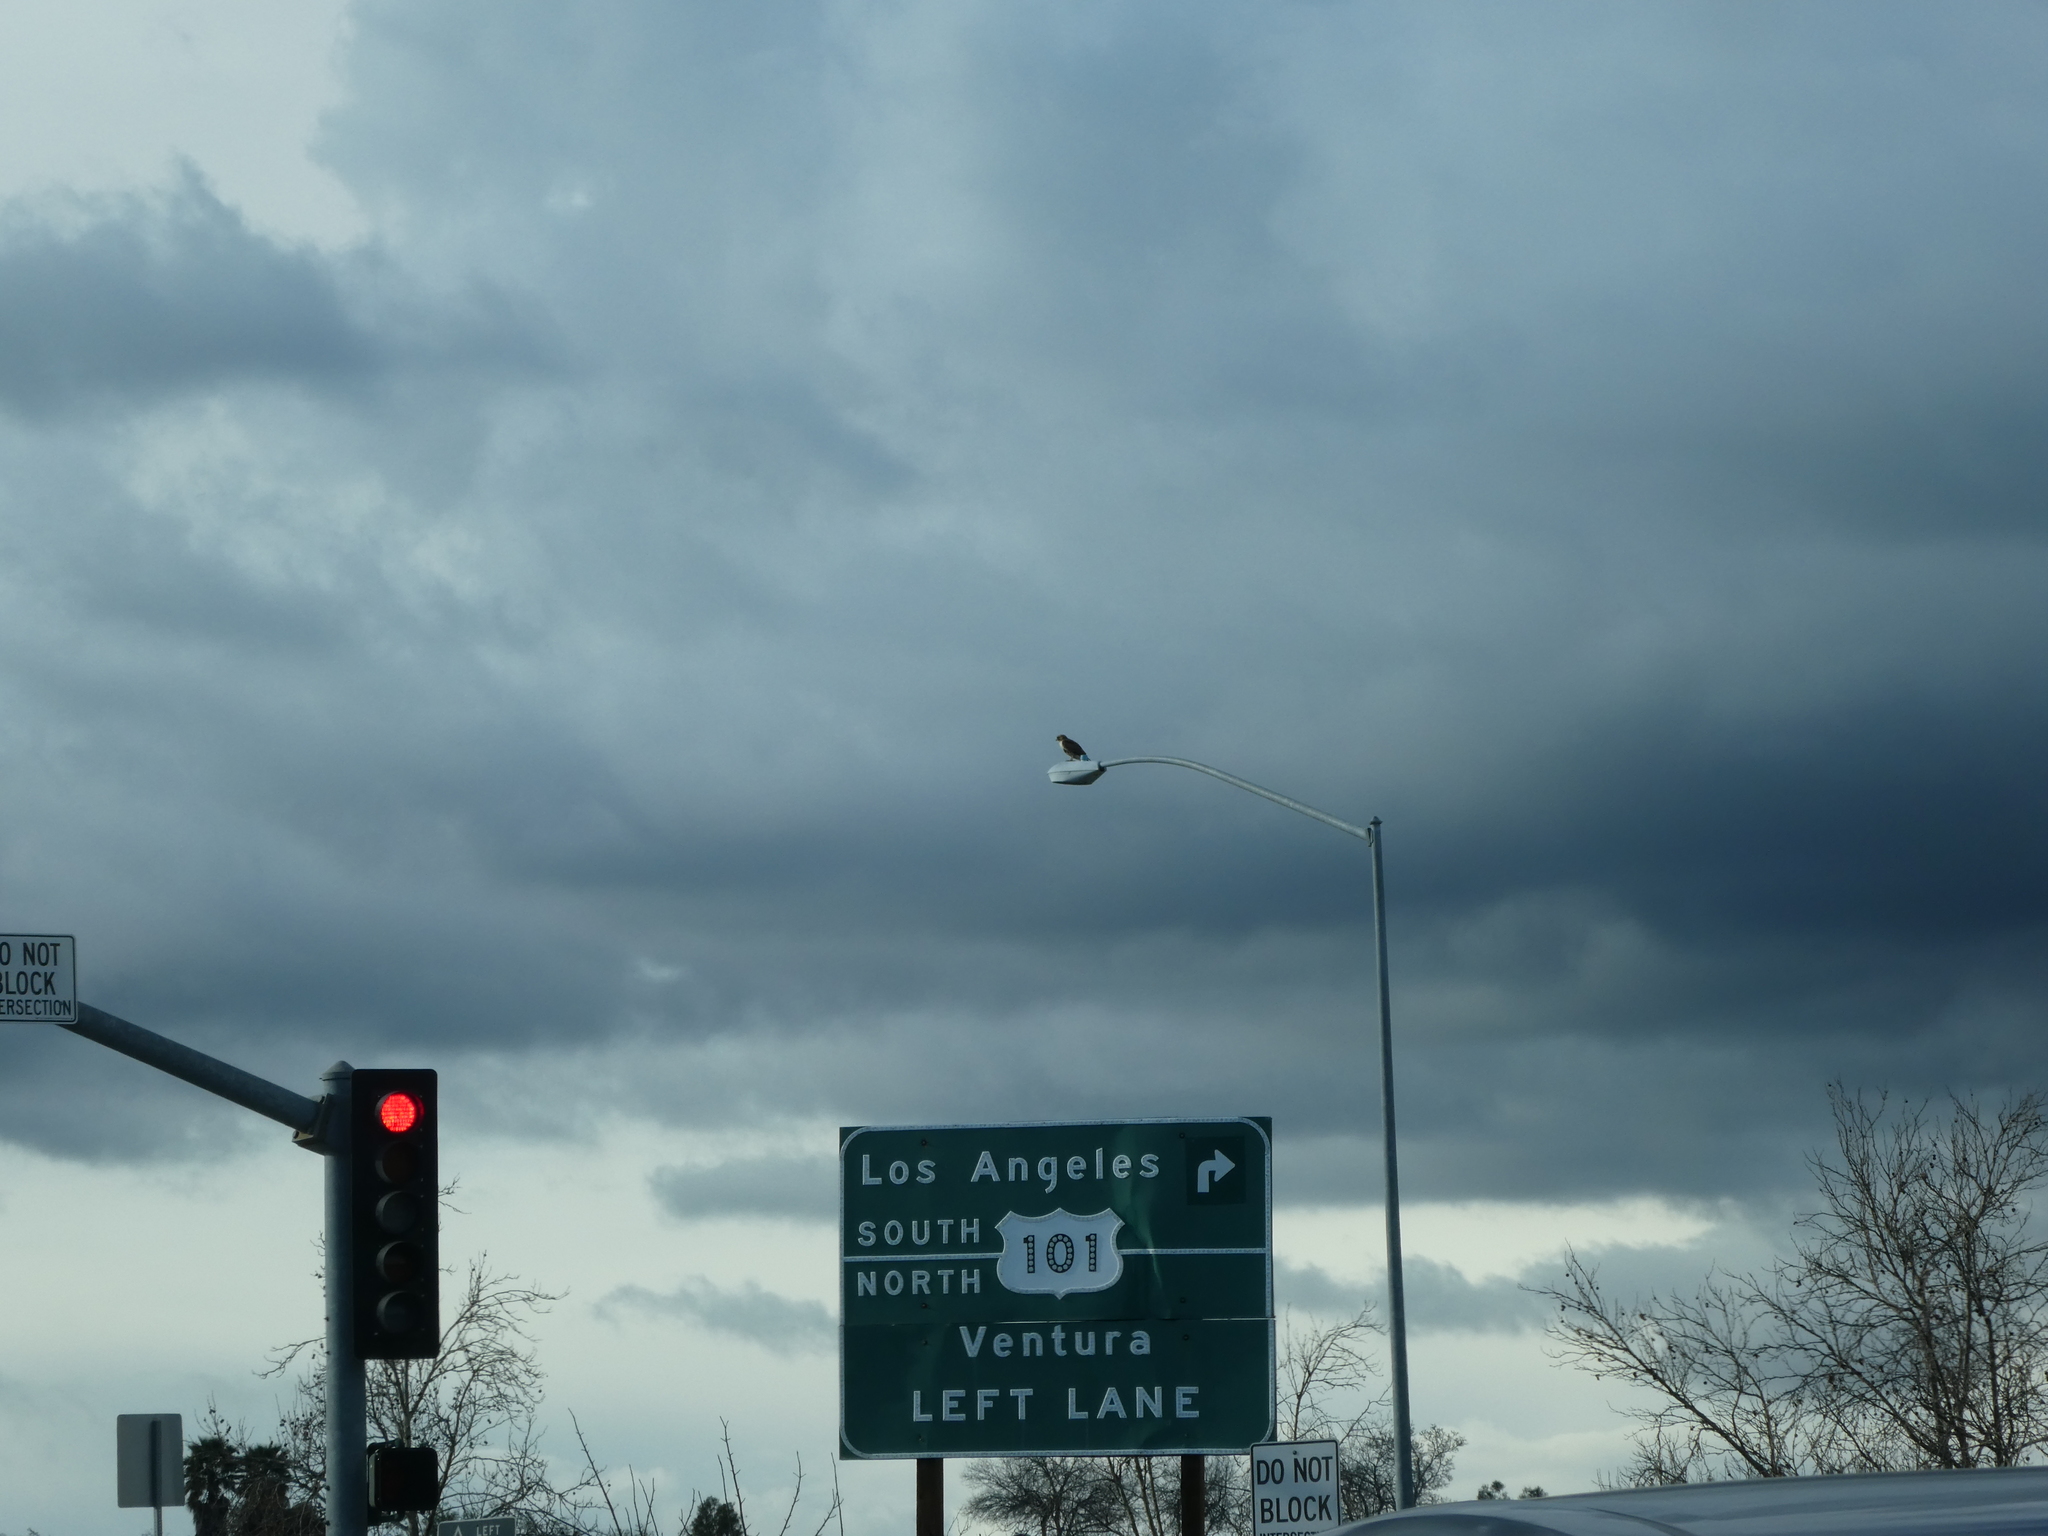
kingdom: Animalia
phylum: Chordata
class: Aves
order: Accipitriformes
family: Accipitridae
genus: Buteo
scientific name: Buteo jamaicensis
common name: Red-tailed hawk
